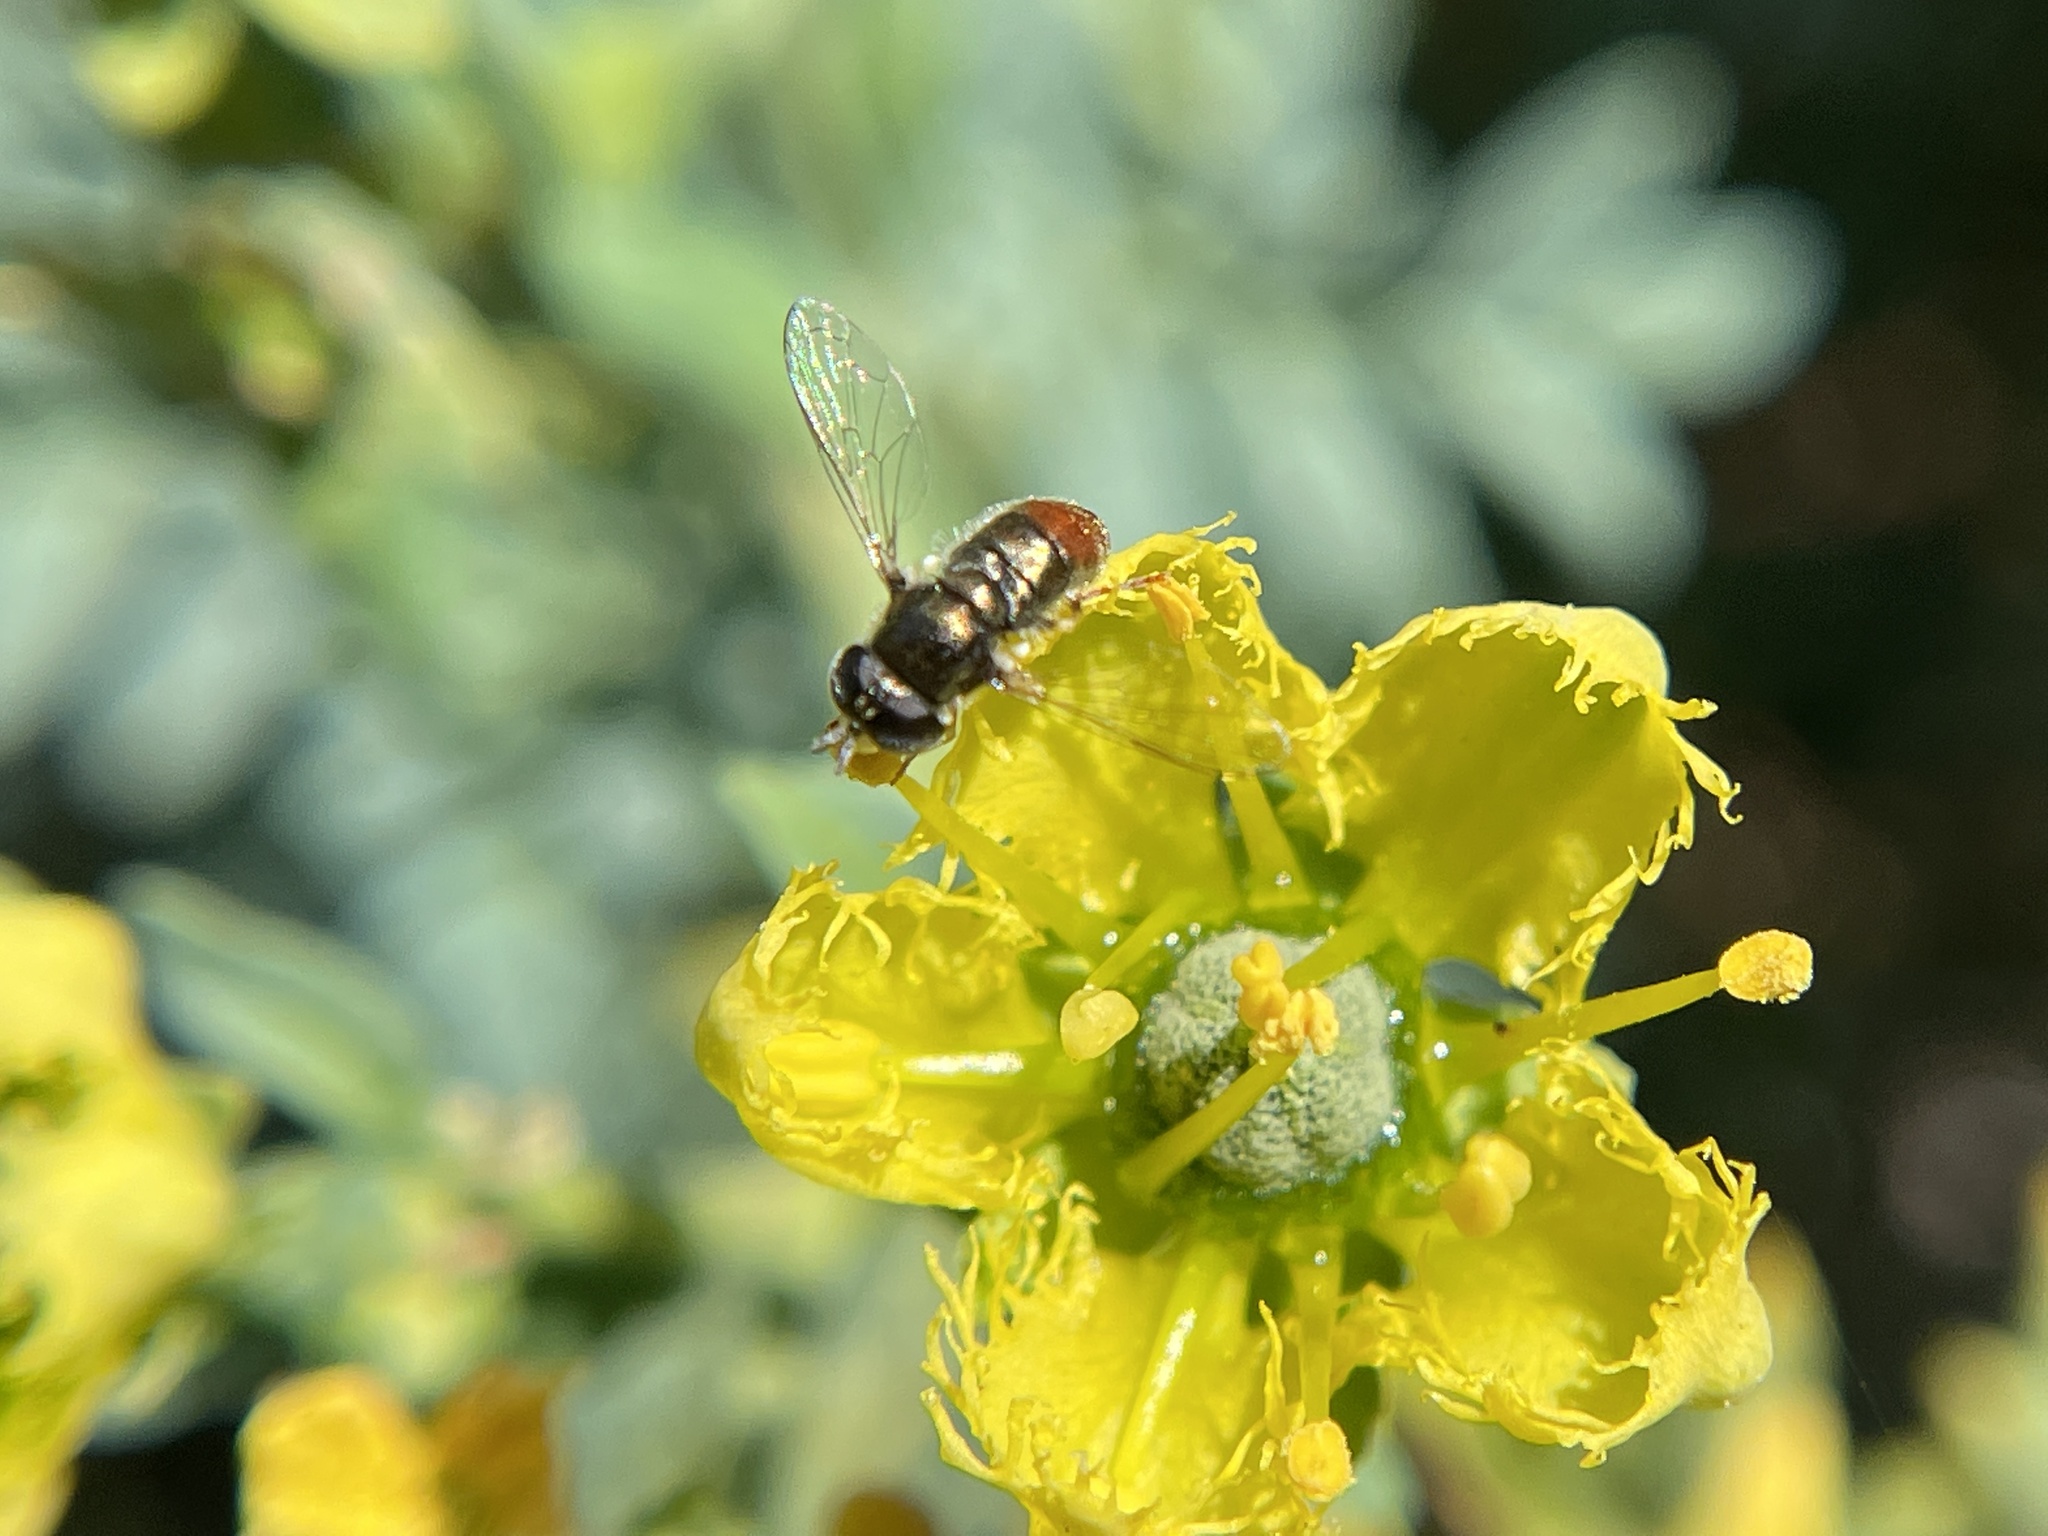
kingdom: Animalia
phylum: Arthropoda
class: Insecta
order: Diptera
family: Syrphidae
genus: Paragus
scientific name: Paragus haemorrhous
